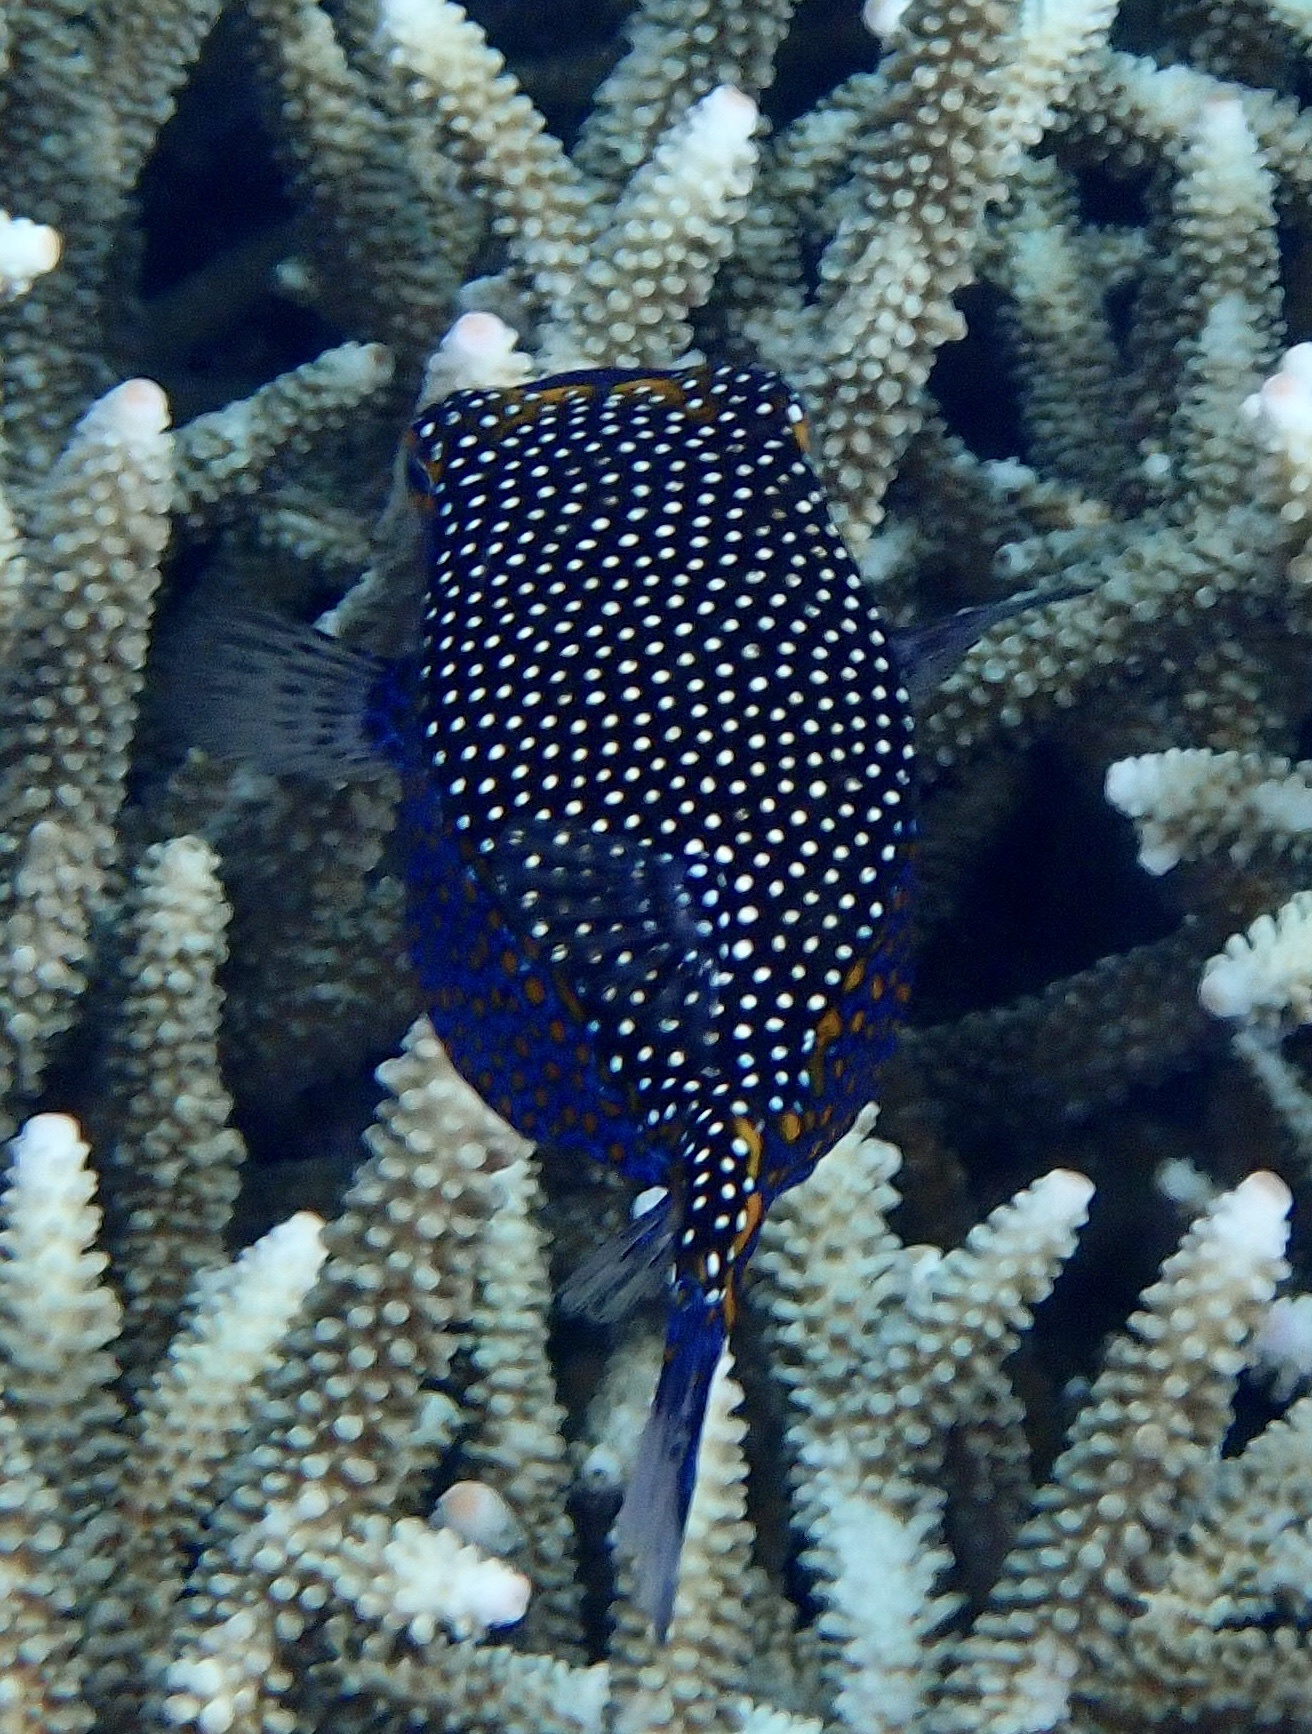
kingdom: Animalia
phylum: Chordata
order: Tetraodontiformes
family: Ostraciidae
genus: Ostracion
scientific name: Ostracion meleagris
